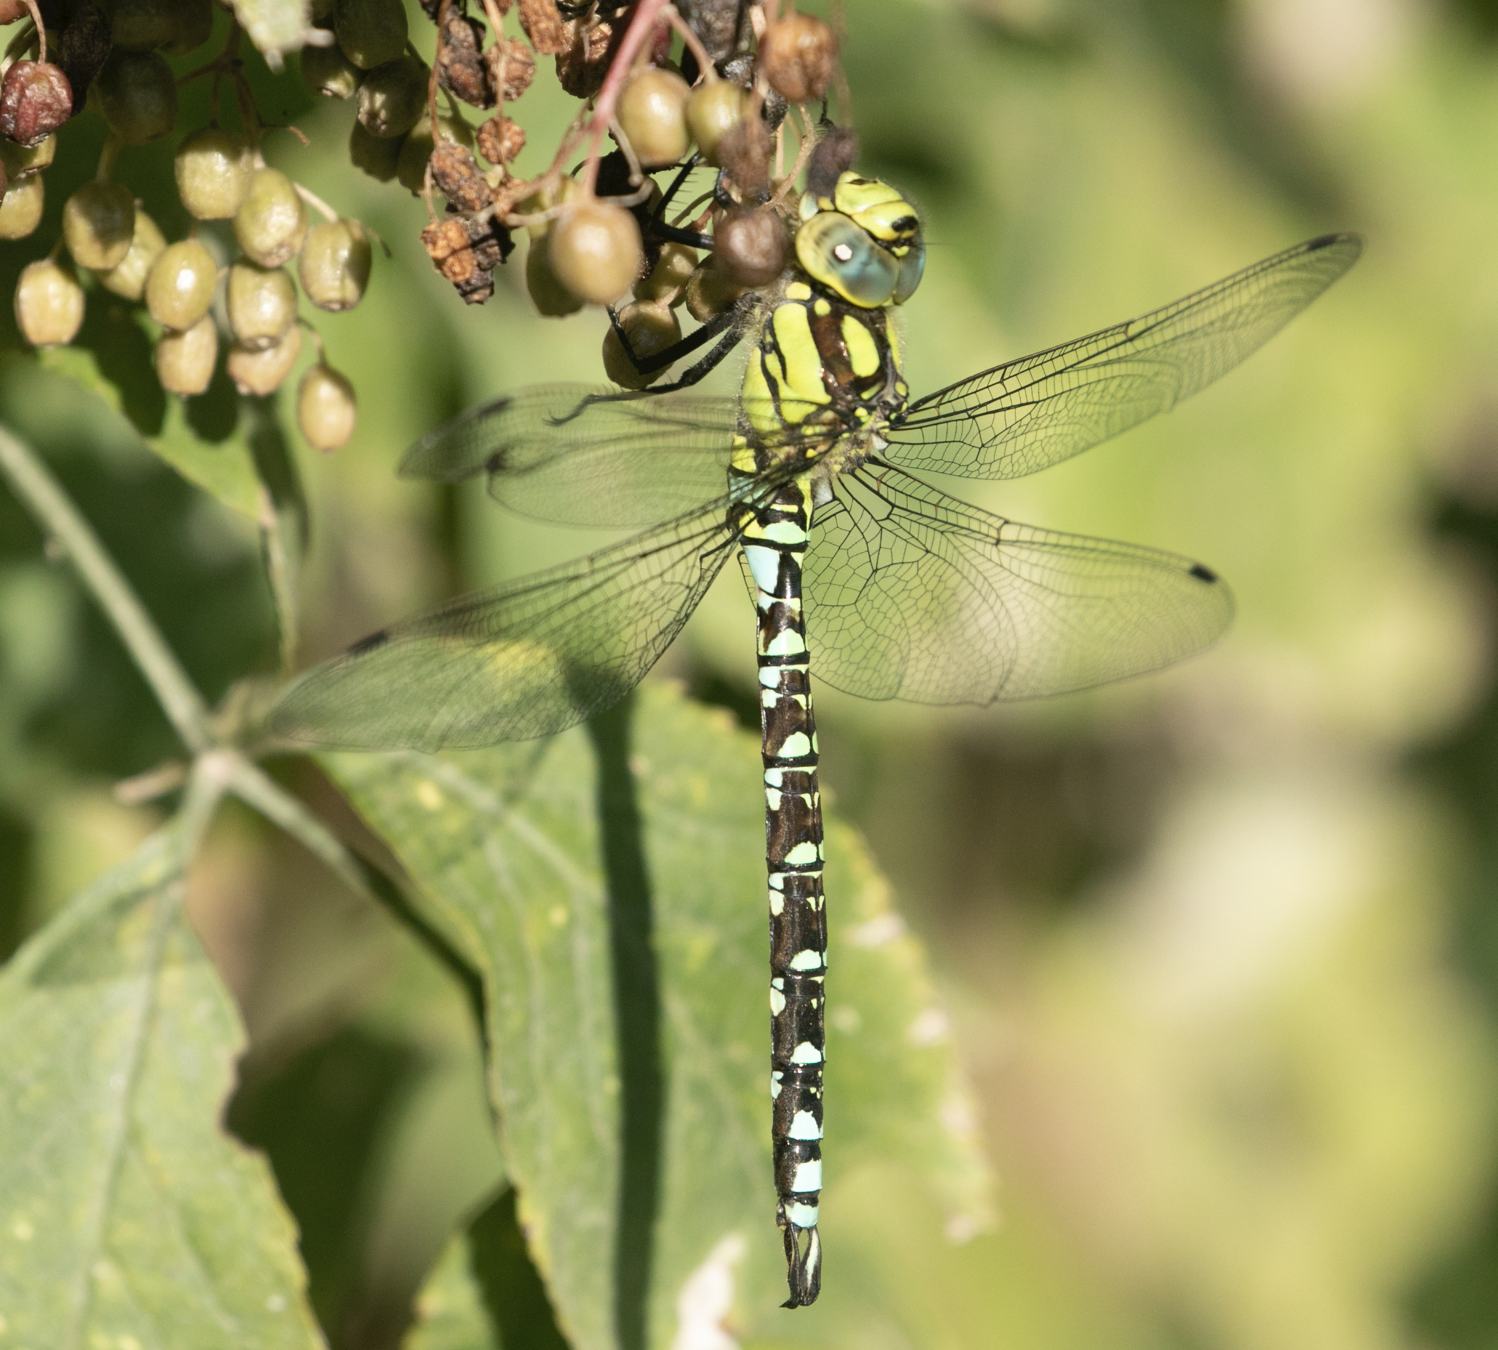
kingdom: Animalia
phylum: Arthropoda
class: Insecta
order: Odonata
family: Aeshnidae
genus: Aeshna
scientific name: Aeshna cyanea
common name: Southern hawker
